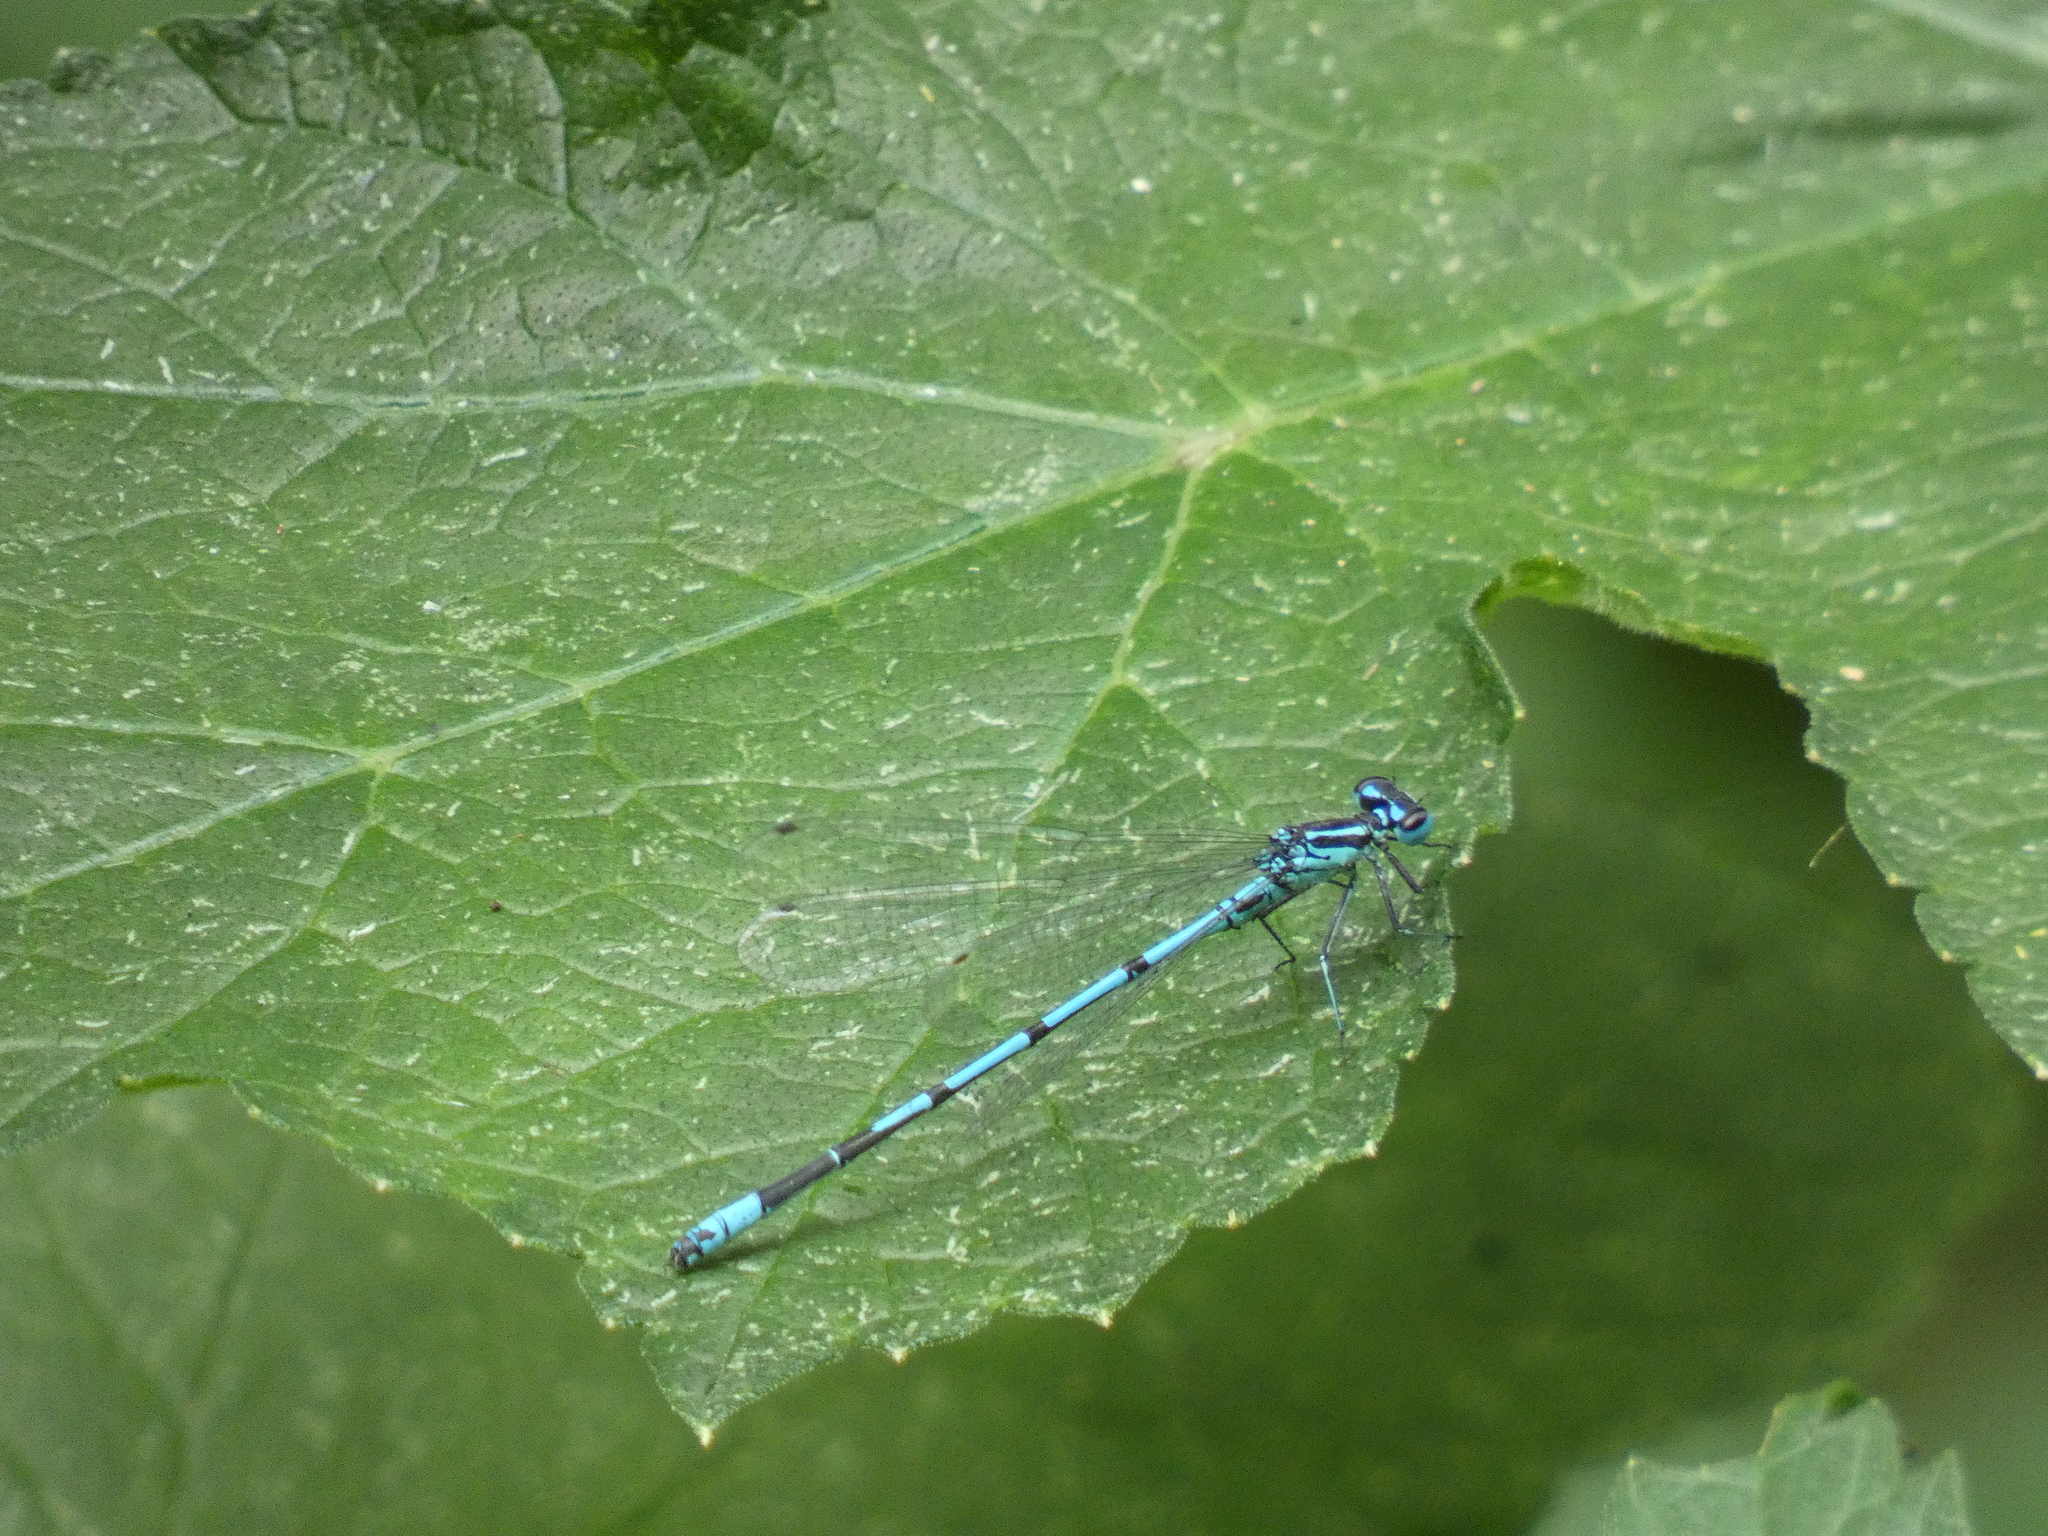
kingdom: Animalia
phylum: Arthropoda
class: Insecta
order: Odonata
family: Coenagrionidae
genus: Coenagrion
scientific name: Coenagrion puella
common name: Azure damselfly
